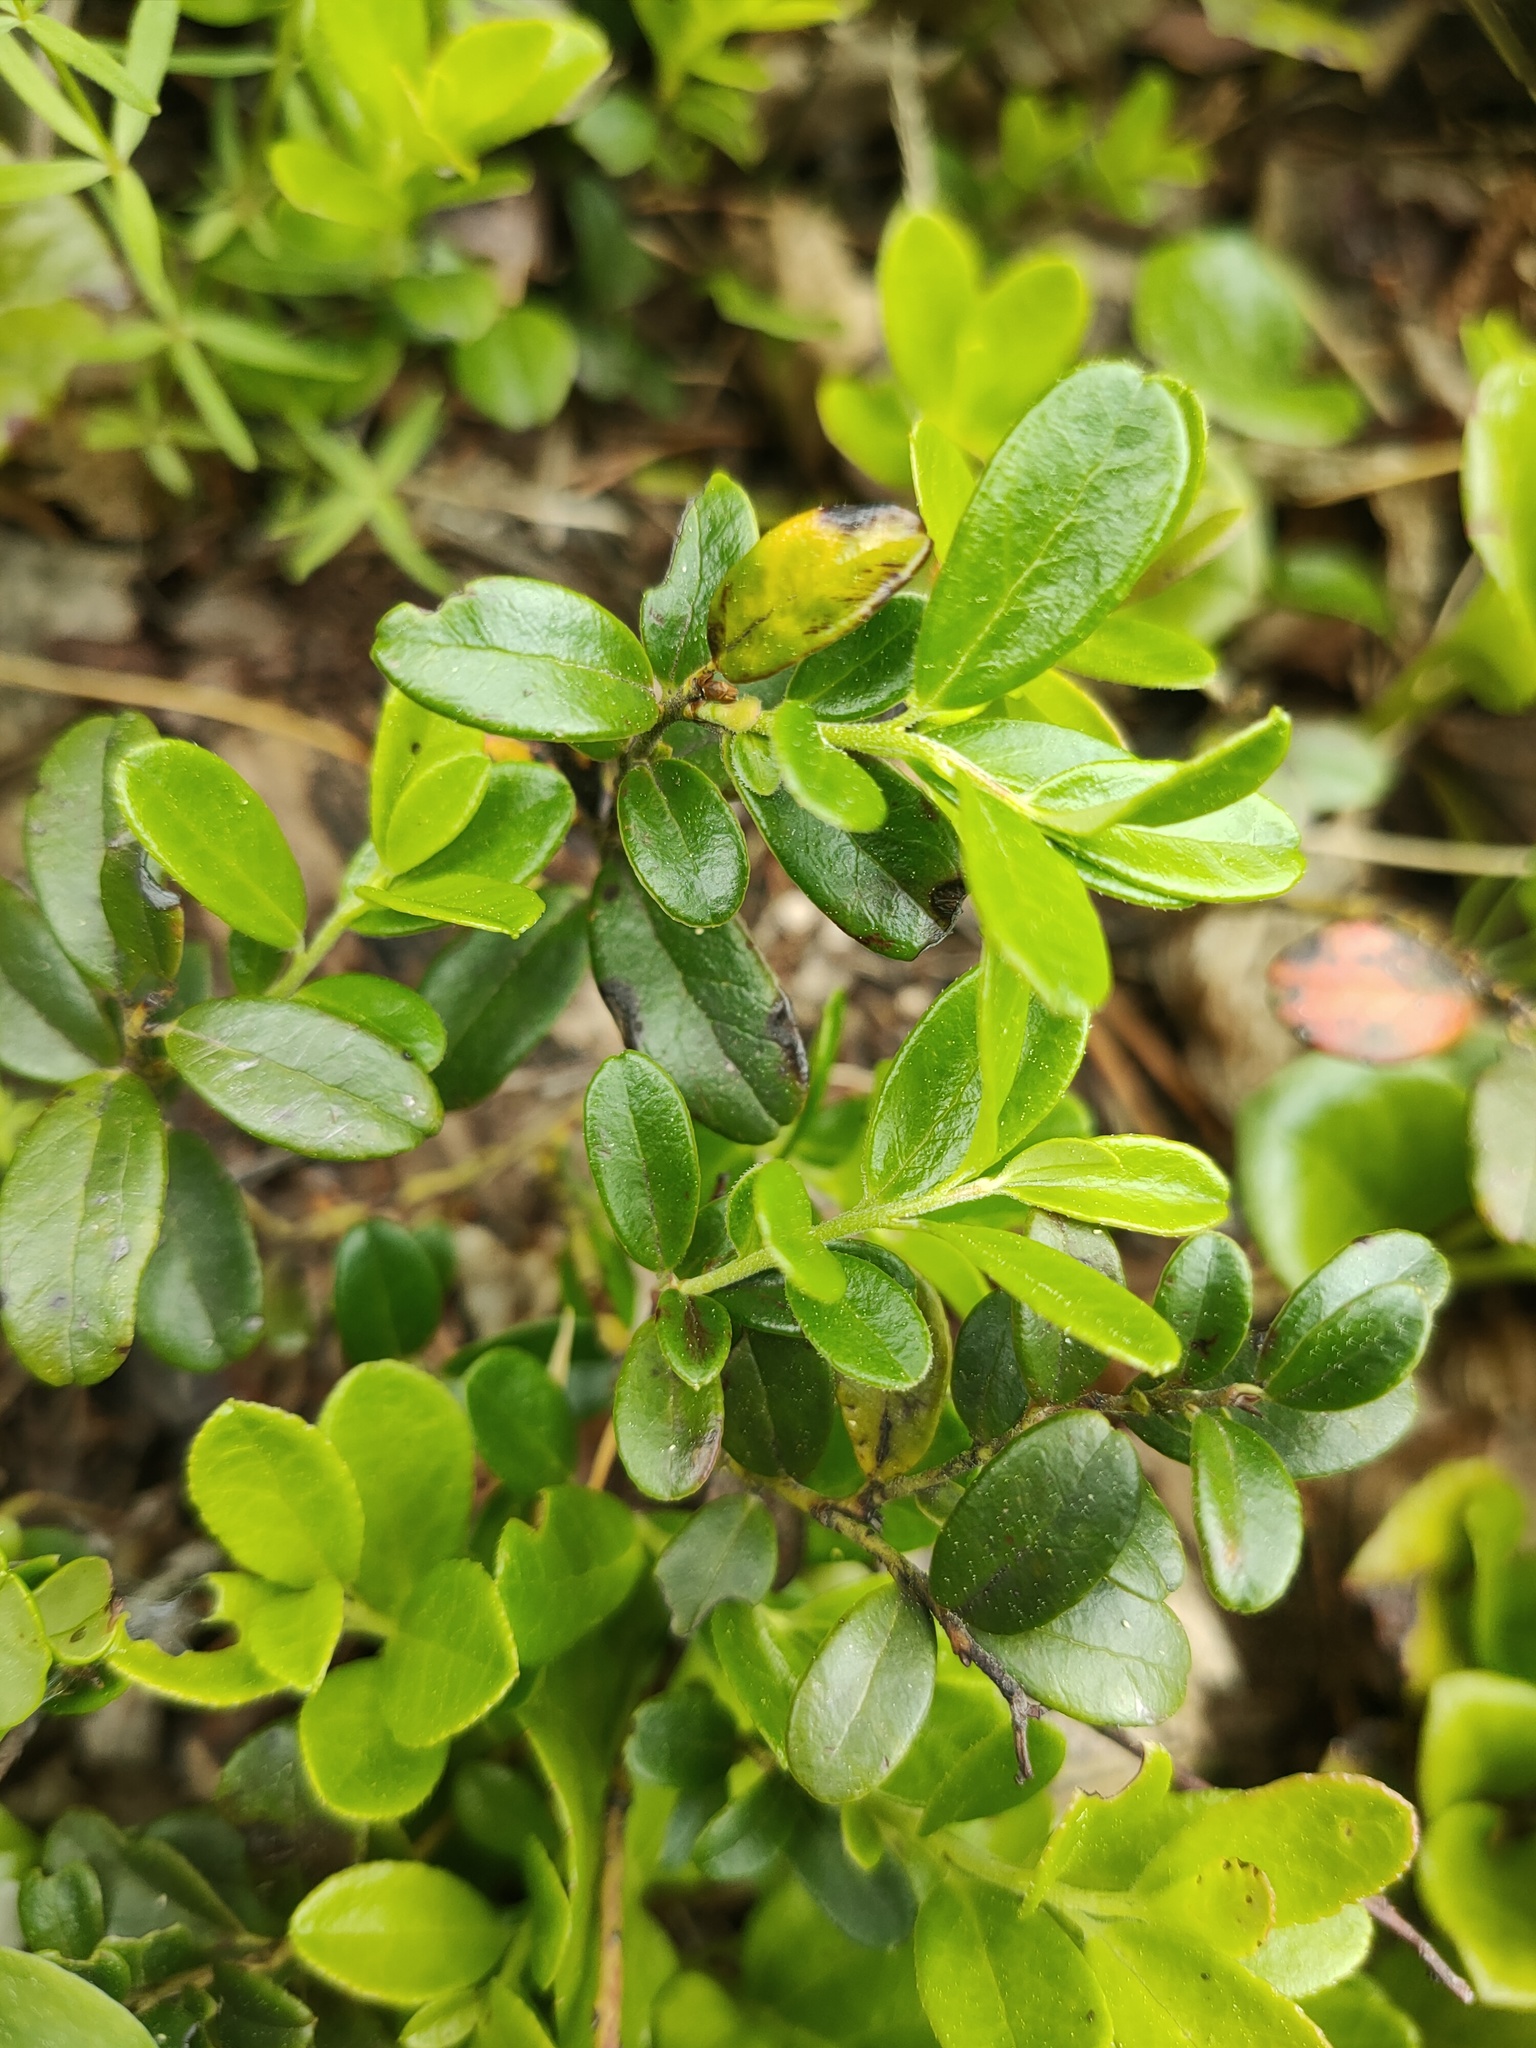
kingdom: Plantae
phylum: Tracheophyta
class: Magnoliopsida
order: Ericales
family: Ericaceae
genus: Vaccinium
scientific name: Vaccinium vitis-idaea
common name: Cowberry
